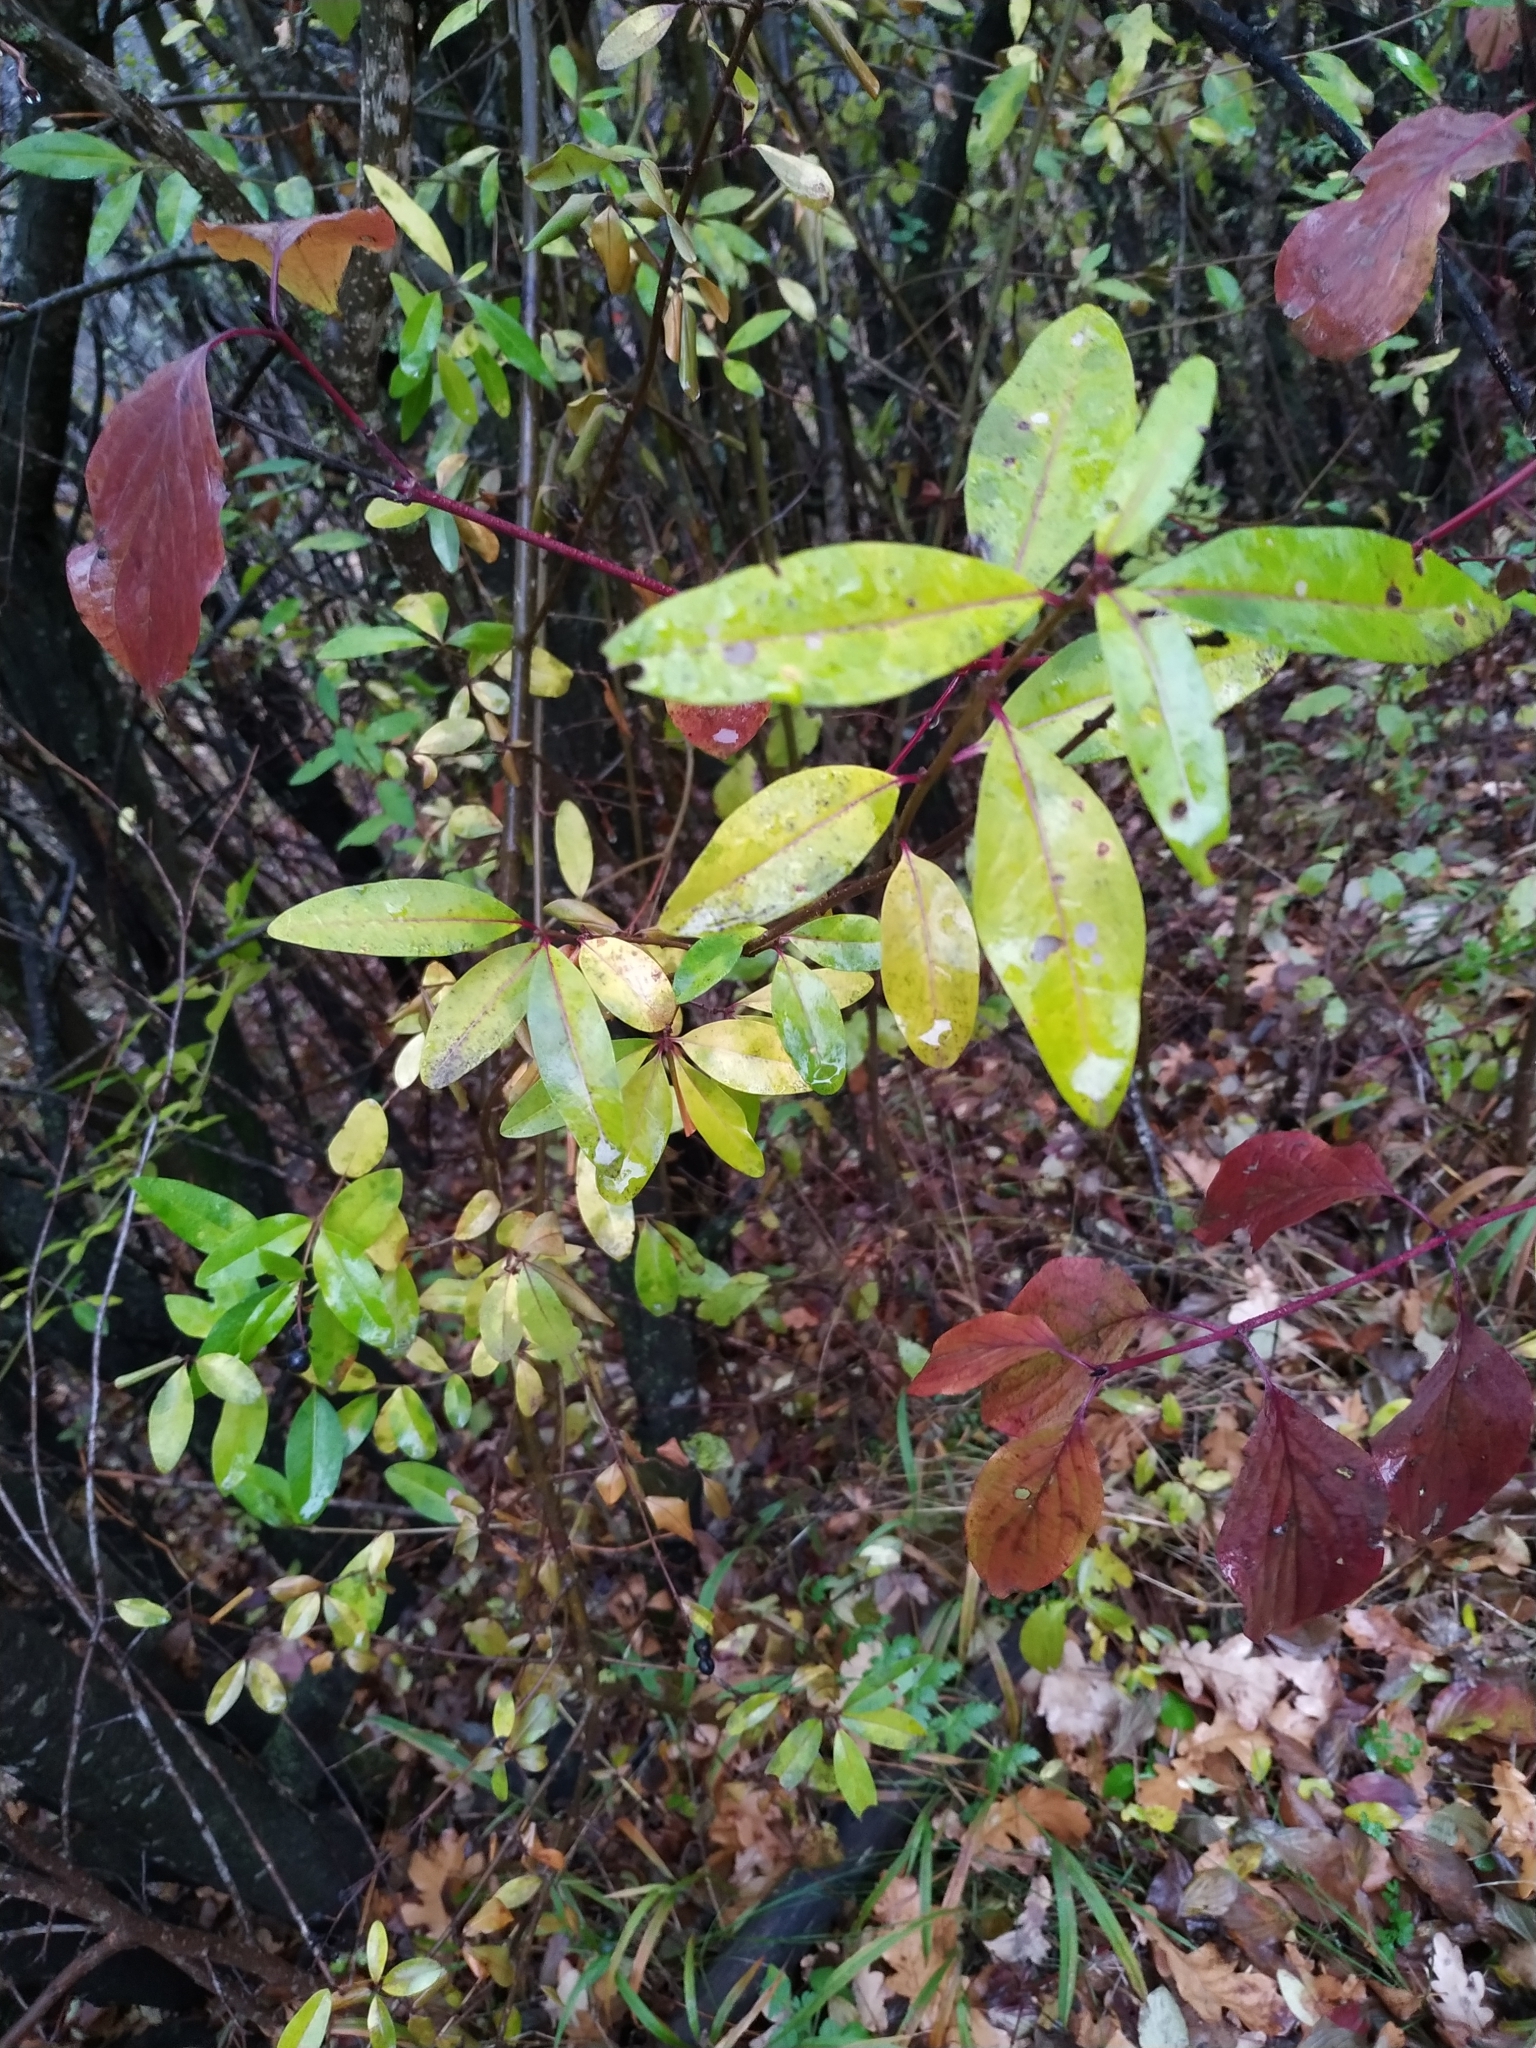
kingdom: Plantae
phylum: Tracheophyta
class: Magnoliopsida
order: Lamiales
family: Oleaceae
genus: Ligustrum
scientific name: Ligustrum vulgare
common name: Wild privet
